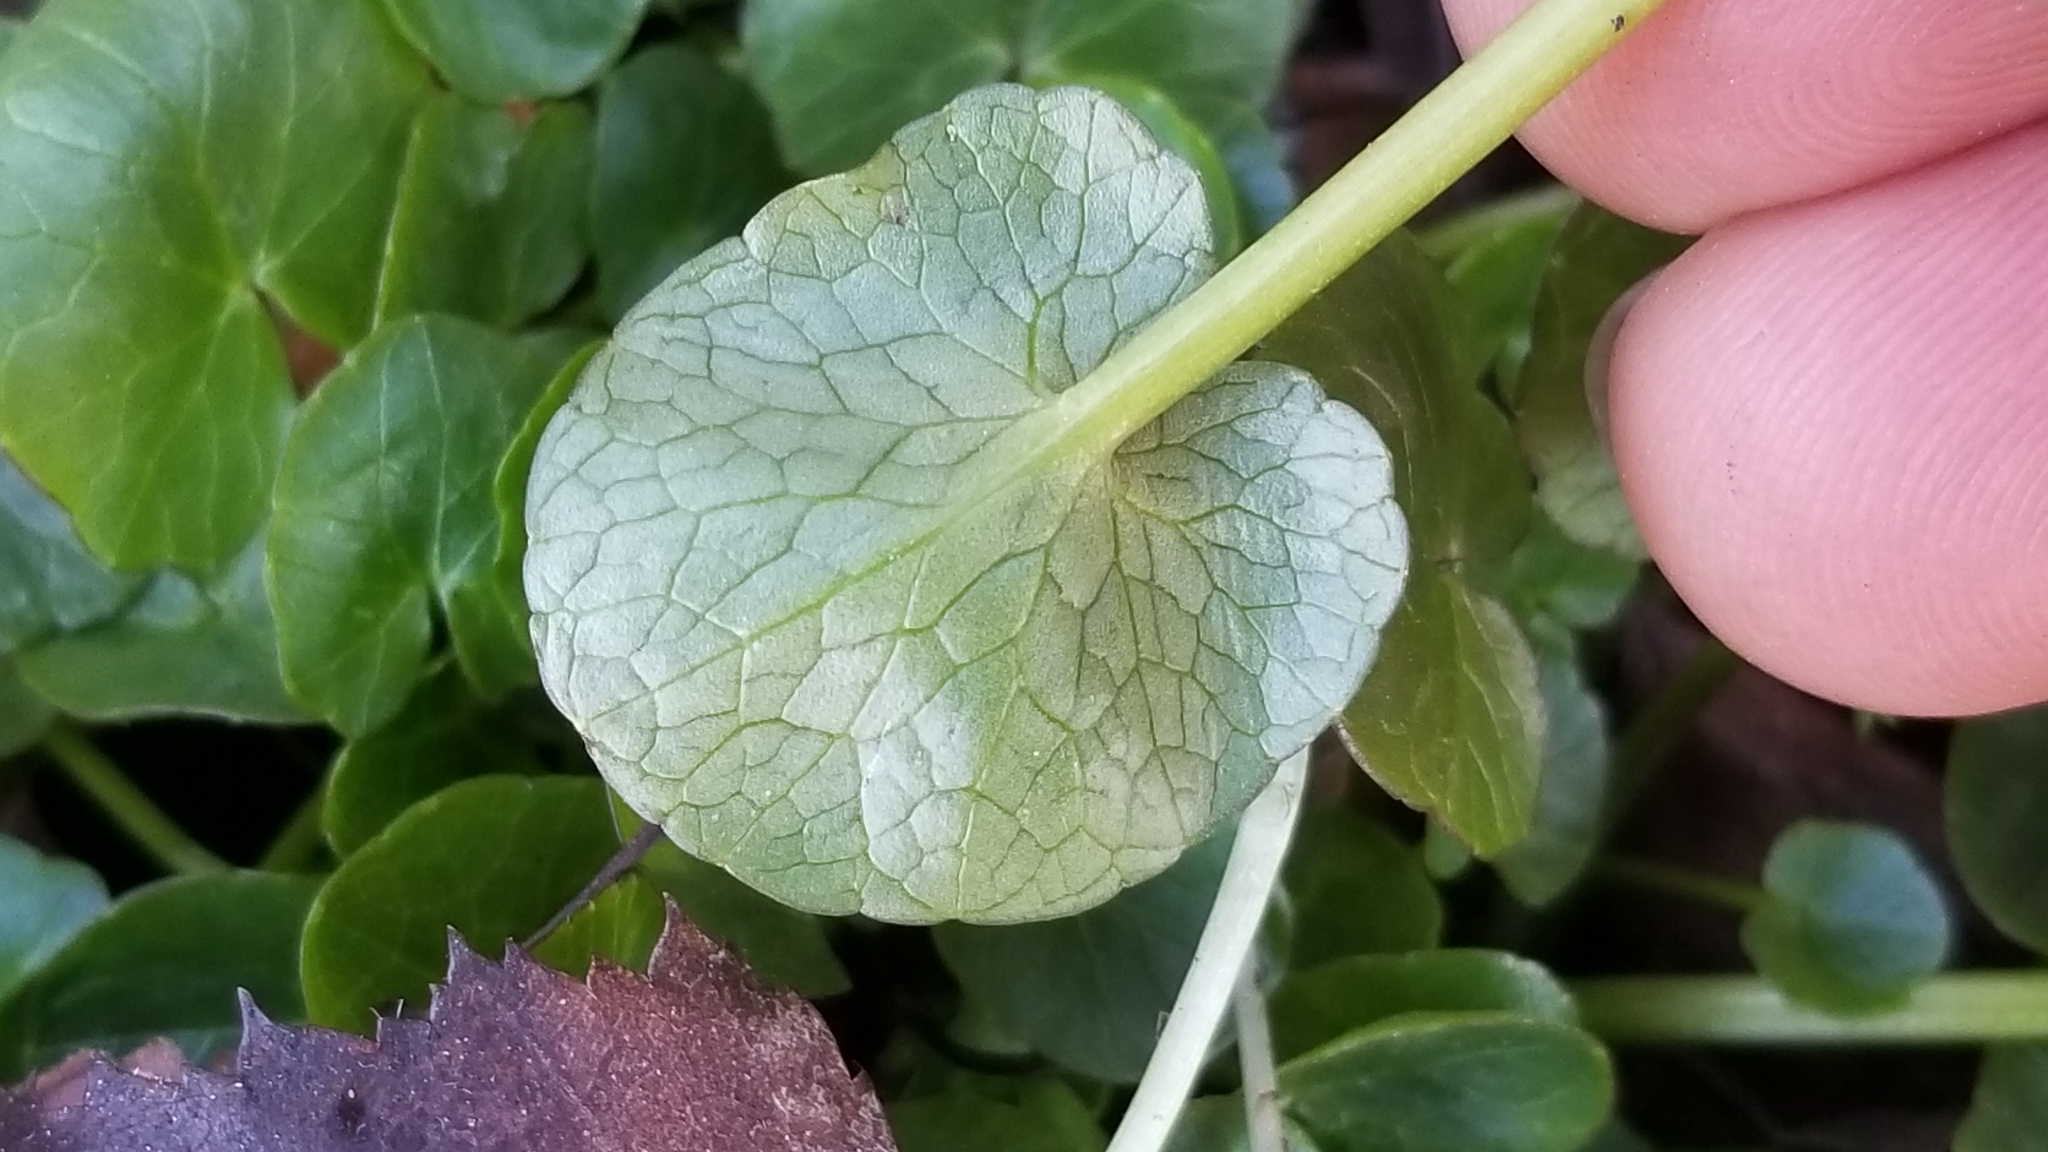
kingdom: Plantae
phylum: Tracheophyta
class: Magnoliopsida
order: Ranunculales
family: Ranunculaceae
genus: Ficaria
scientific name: Ficaria verna
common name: Lesser celandine
